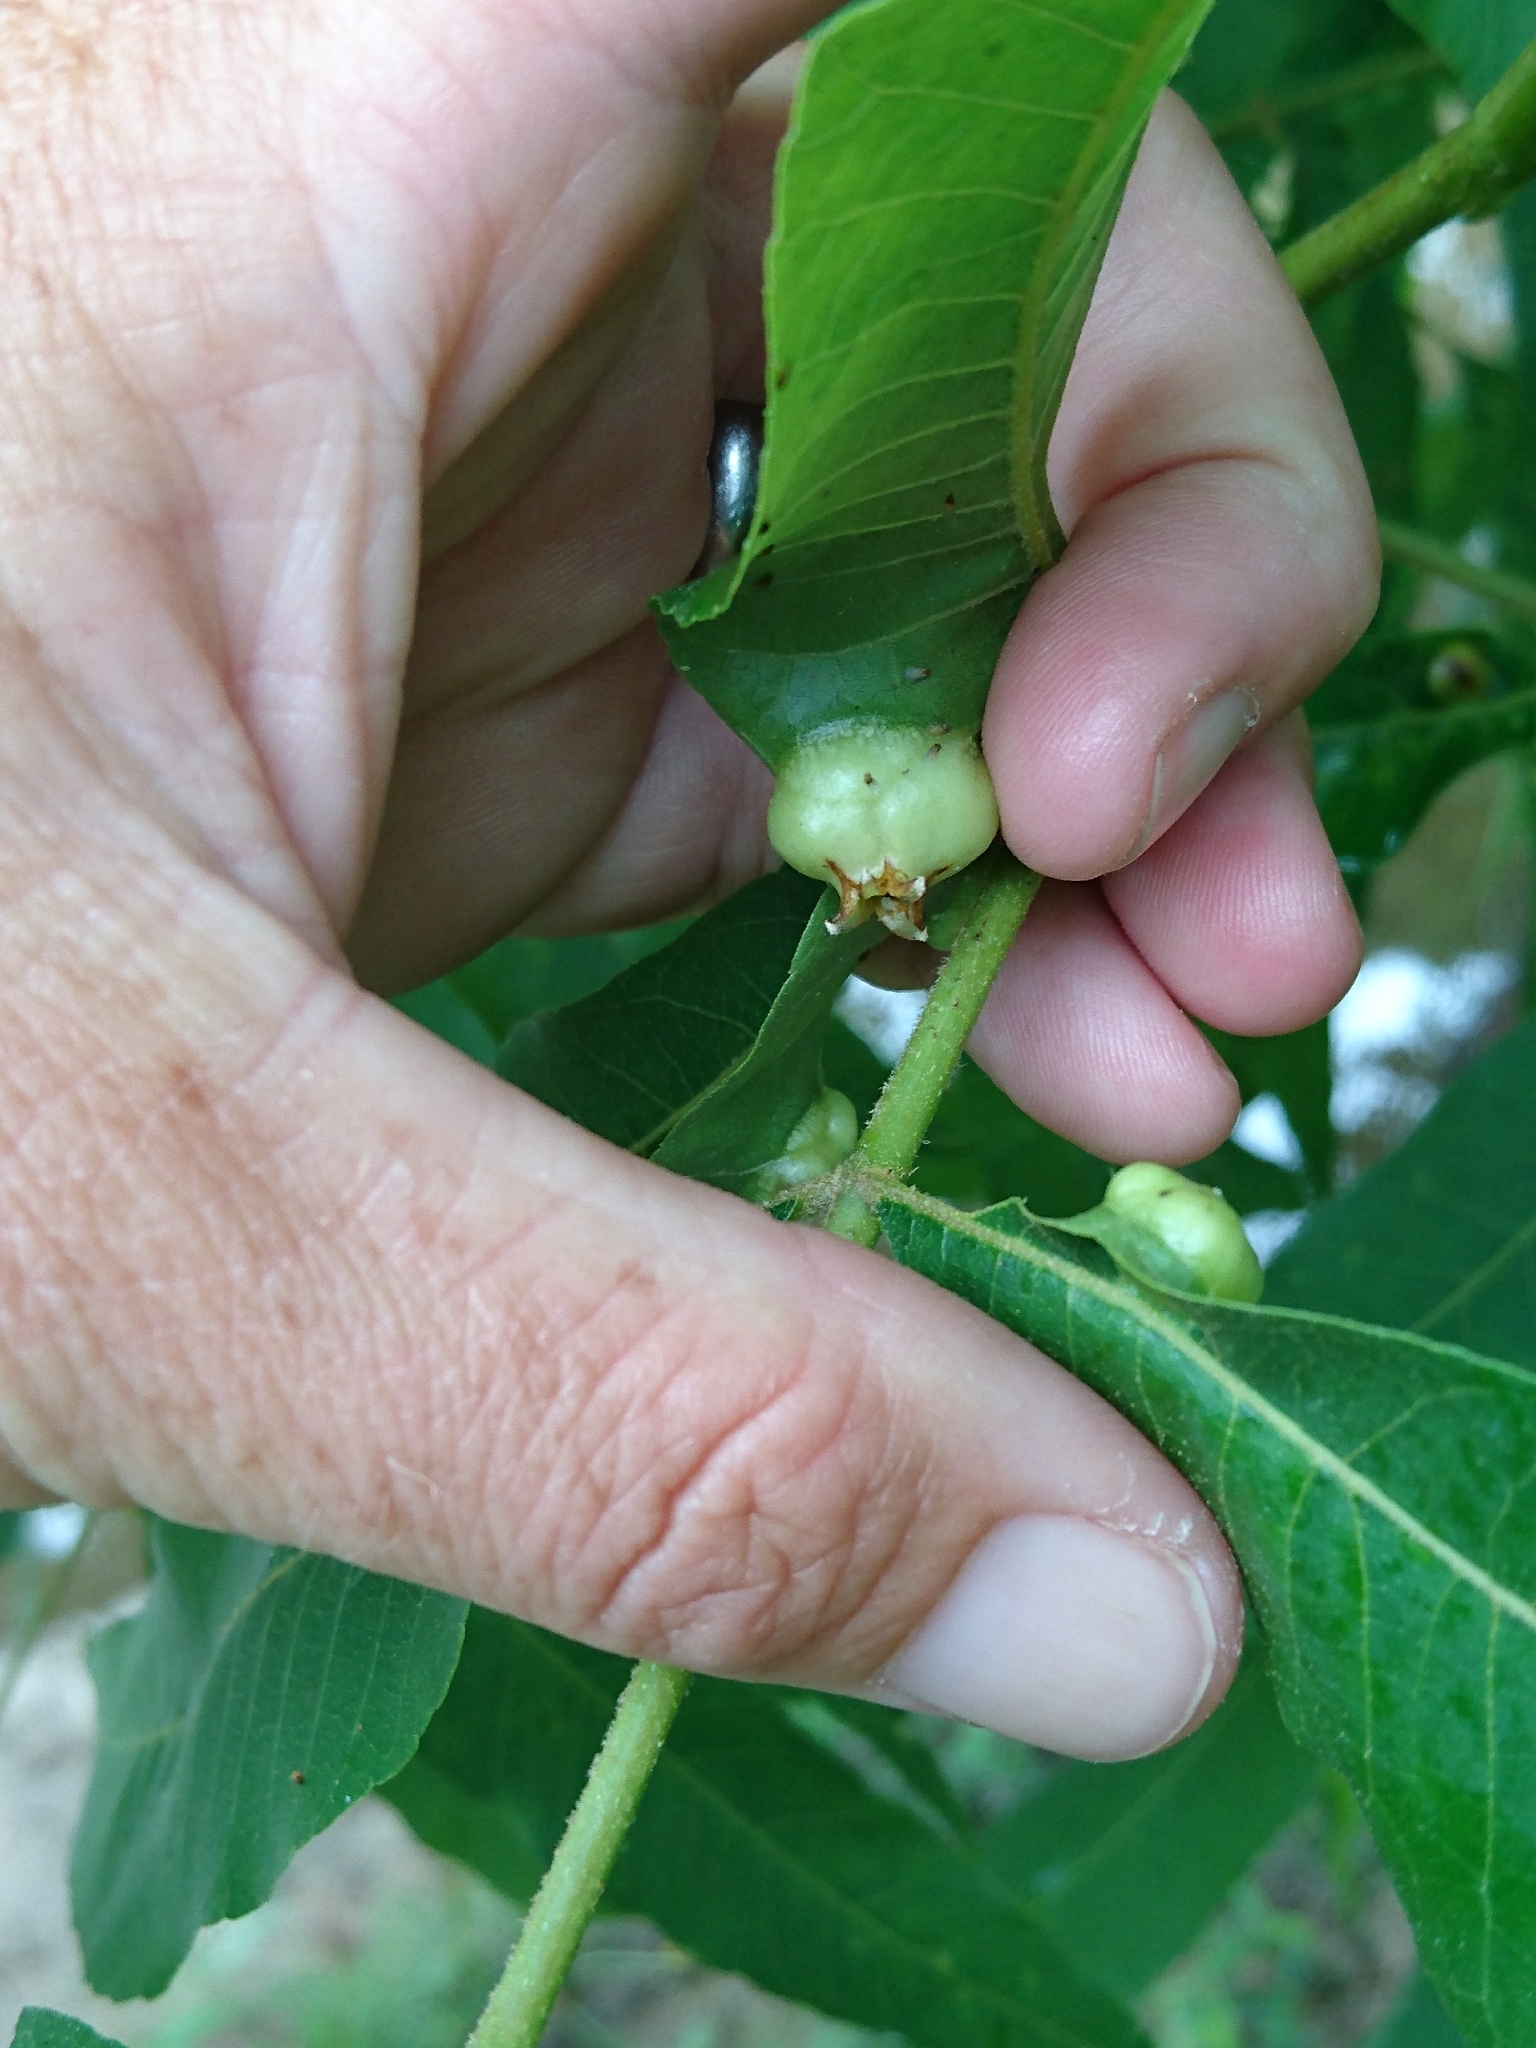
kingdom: Animalia
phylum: Arthropoda
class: Insecta
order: Hemiptera
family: Phylloxeridae
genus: Phylloxera
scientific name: Phylloxera
